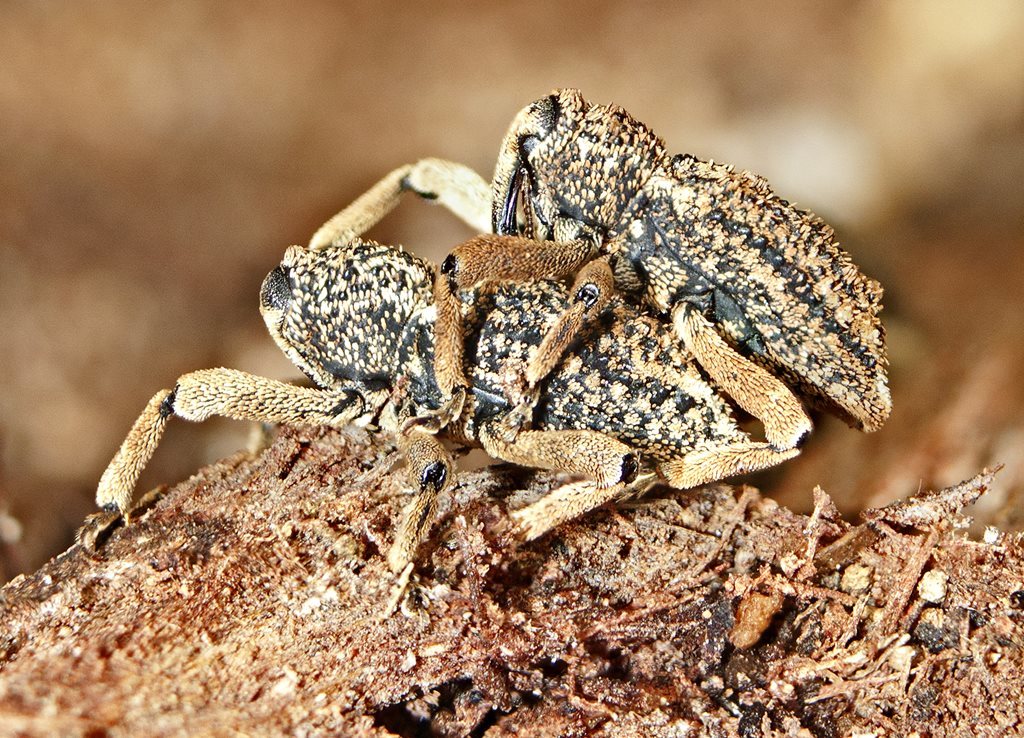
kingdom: Animalia
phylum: Arthropoda
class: Insecta
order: Coleoptera
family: Curculionidae
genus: Poropterus
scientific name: Poropterus antiquus
